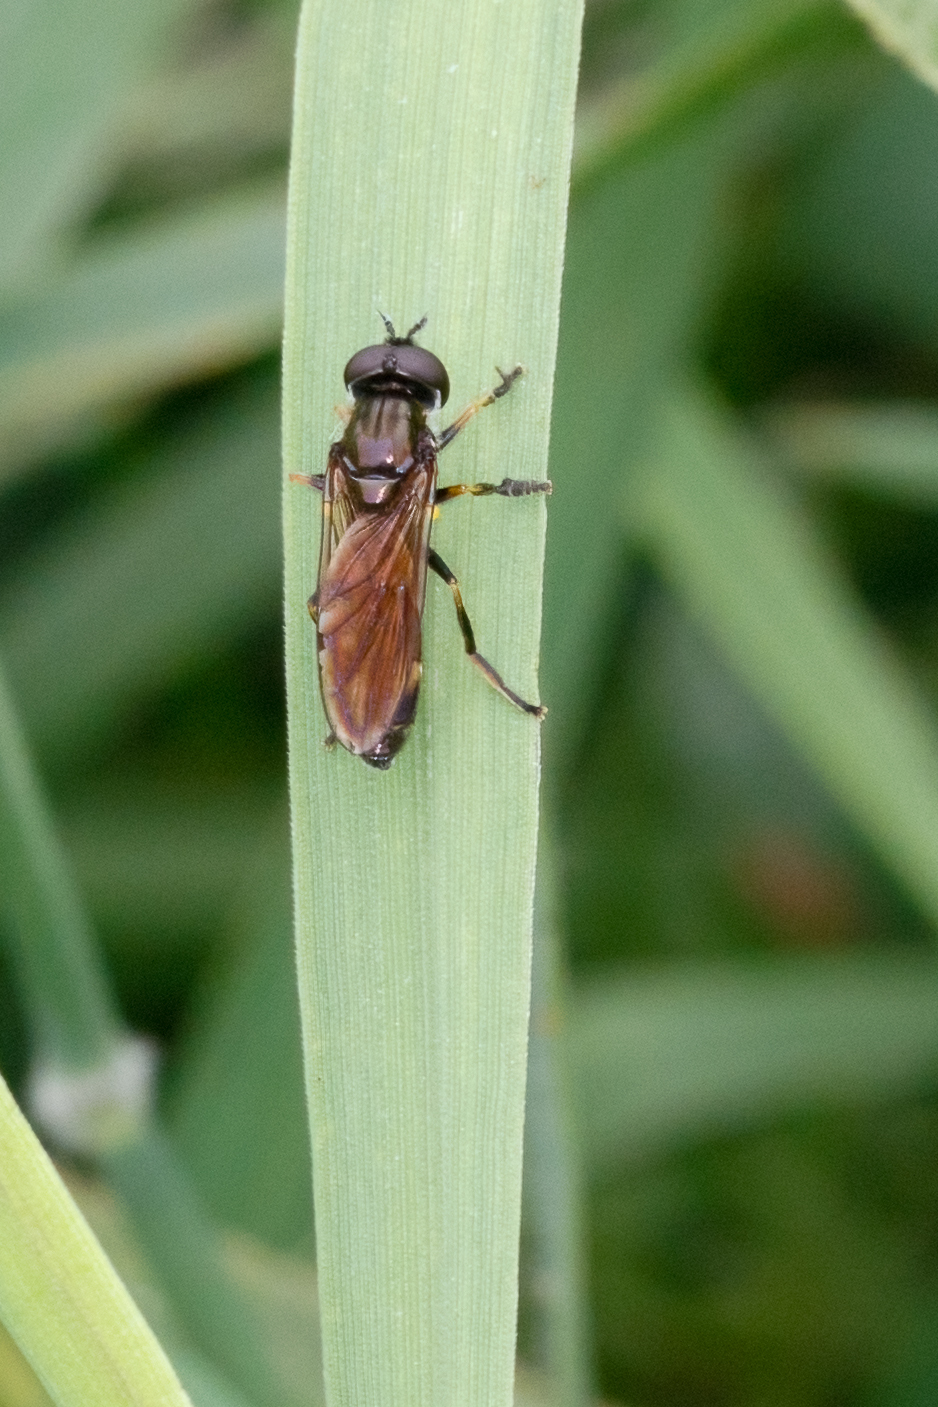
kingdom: Animalia
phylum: Arthropoda
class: Insecta
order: Diptera
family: Syrphidae
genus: Pyrophaena
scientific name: Pyrophaena granditarsa
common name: Hornhand sedgesitter
